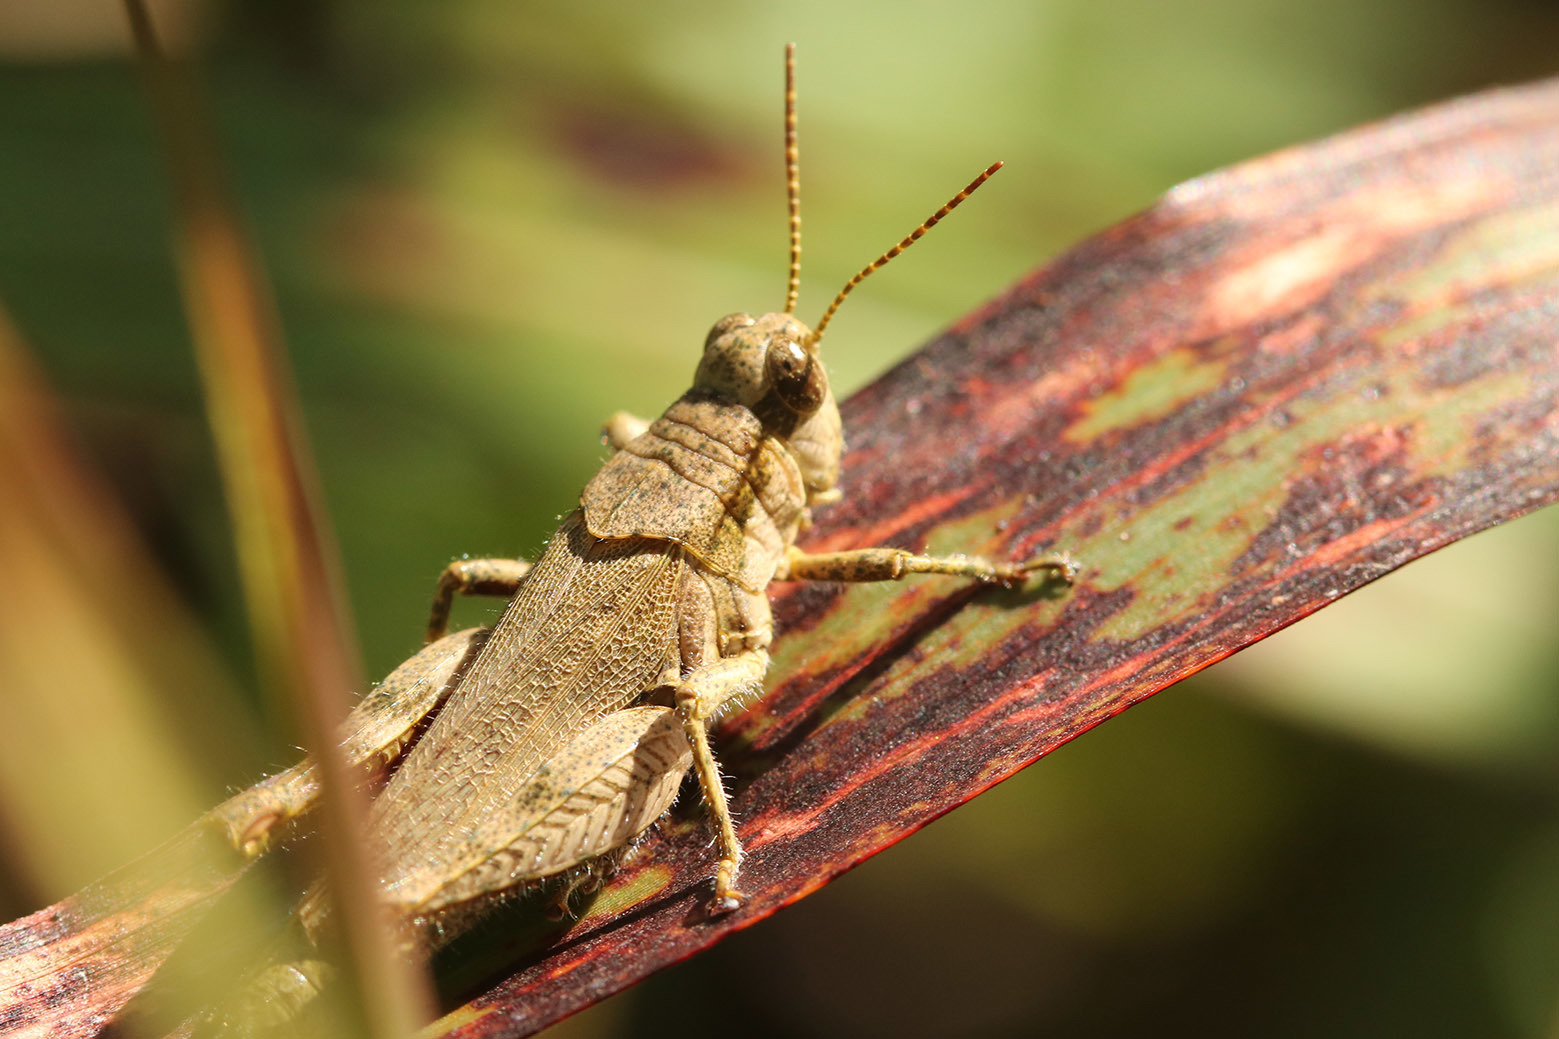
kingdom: Animalia
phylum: Arthropoda
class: Insecta
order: Orthoptera
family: Acrididae
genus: Ronderosia
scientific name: Ronderosia bergii
